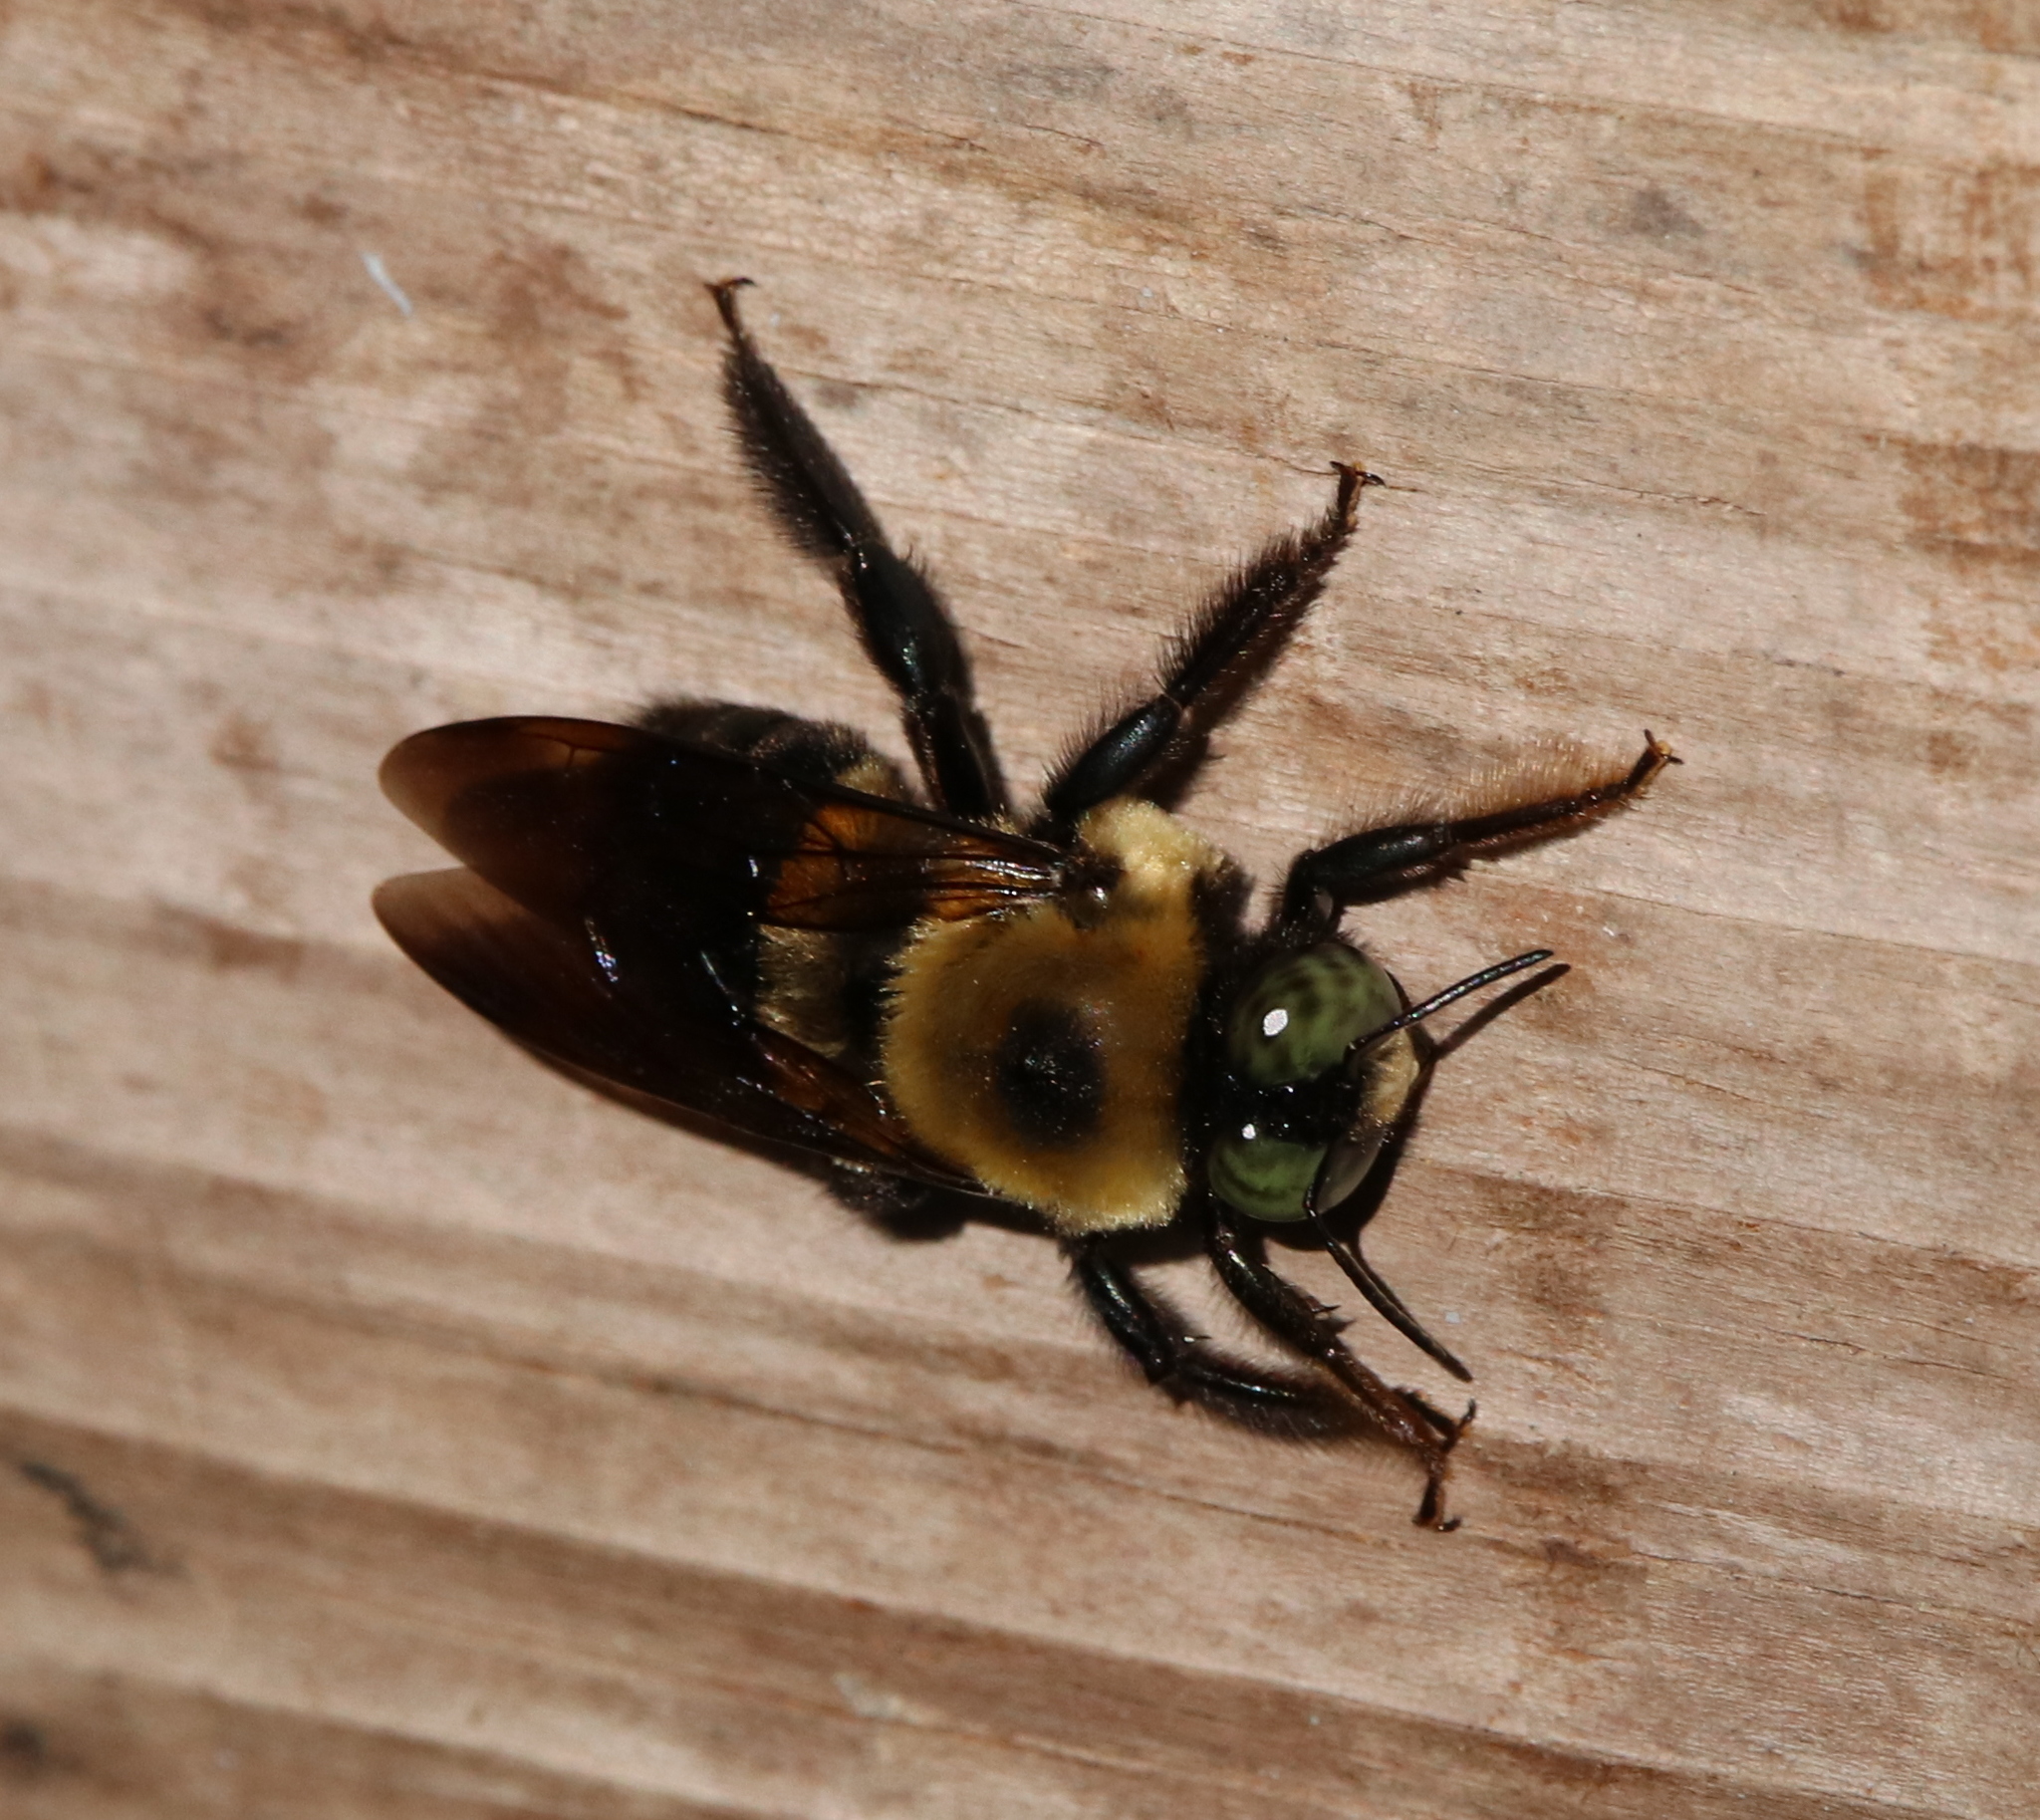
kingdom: Animalia
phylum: Arthropoda
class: Insecta
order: Hymenoptera
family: Apidae
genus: Xylocopa
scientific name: Xylocopa virginica
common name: Carpenter bee
